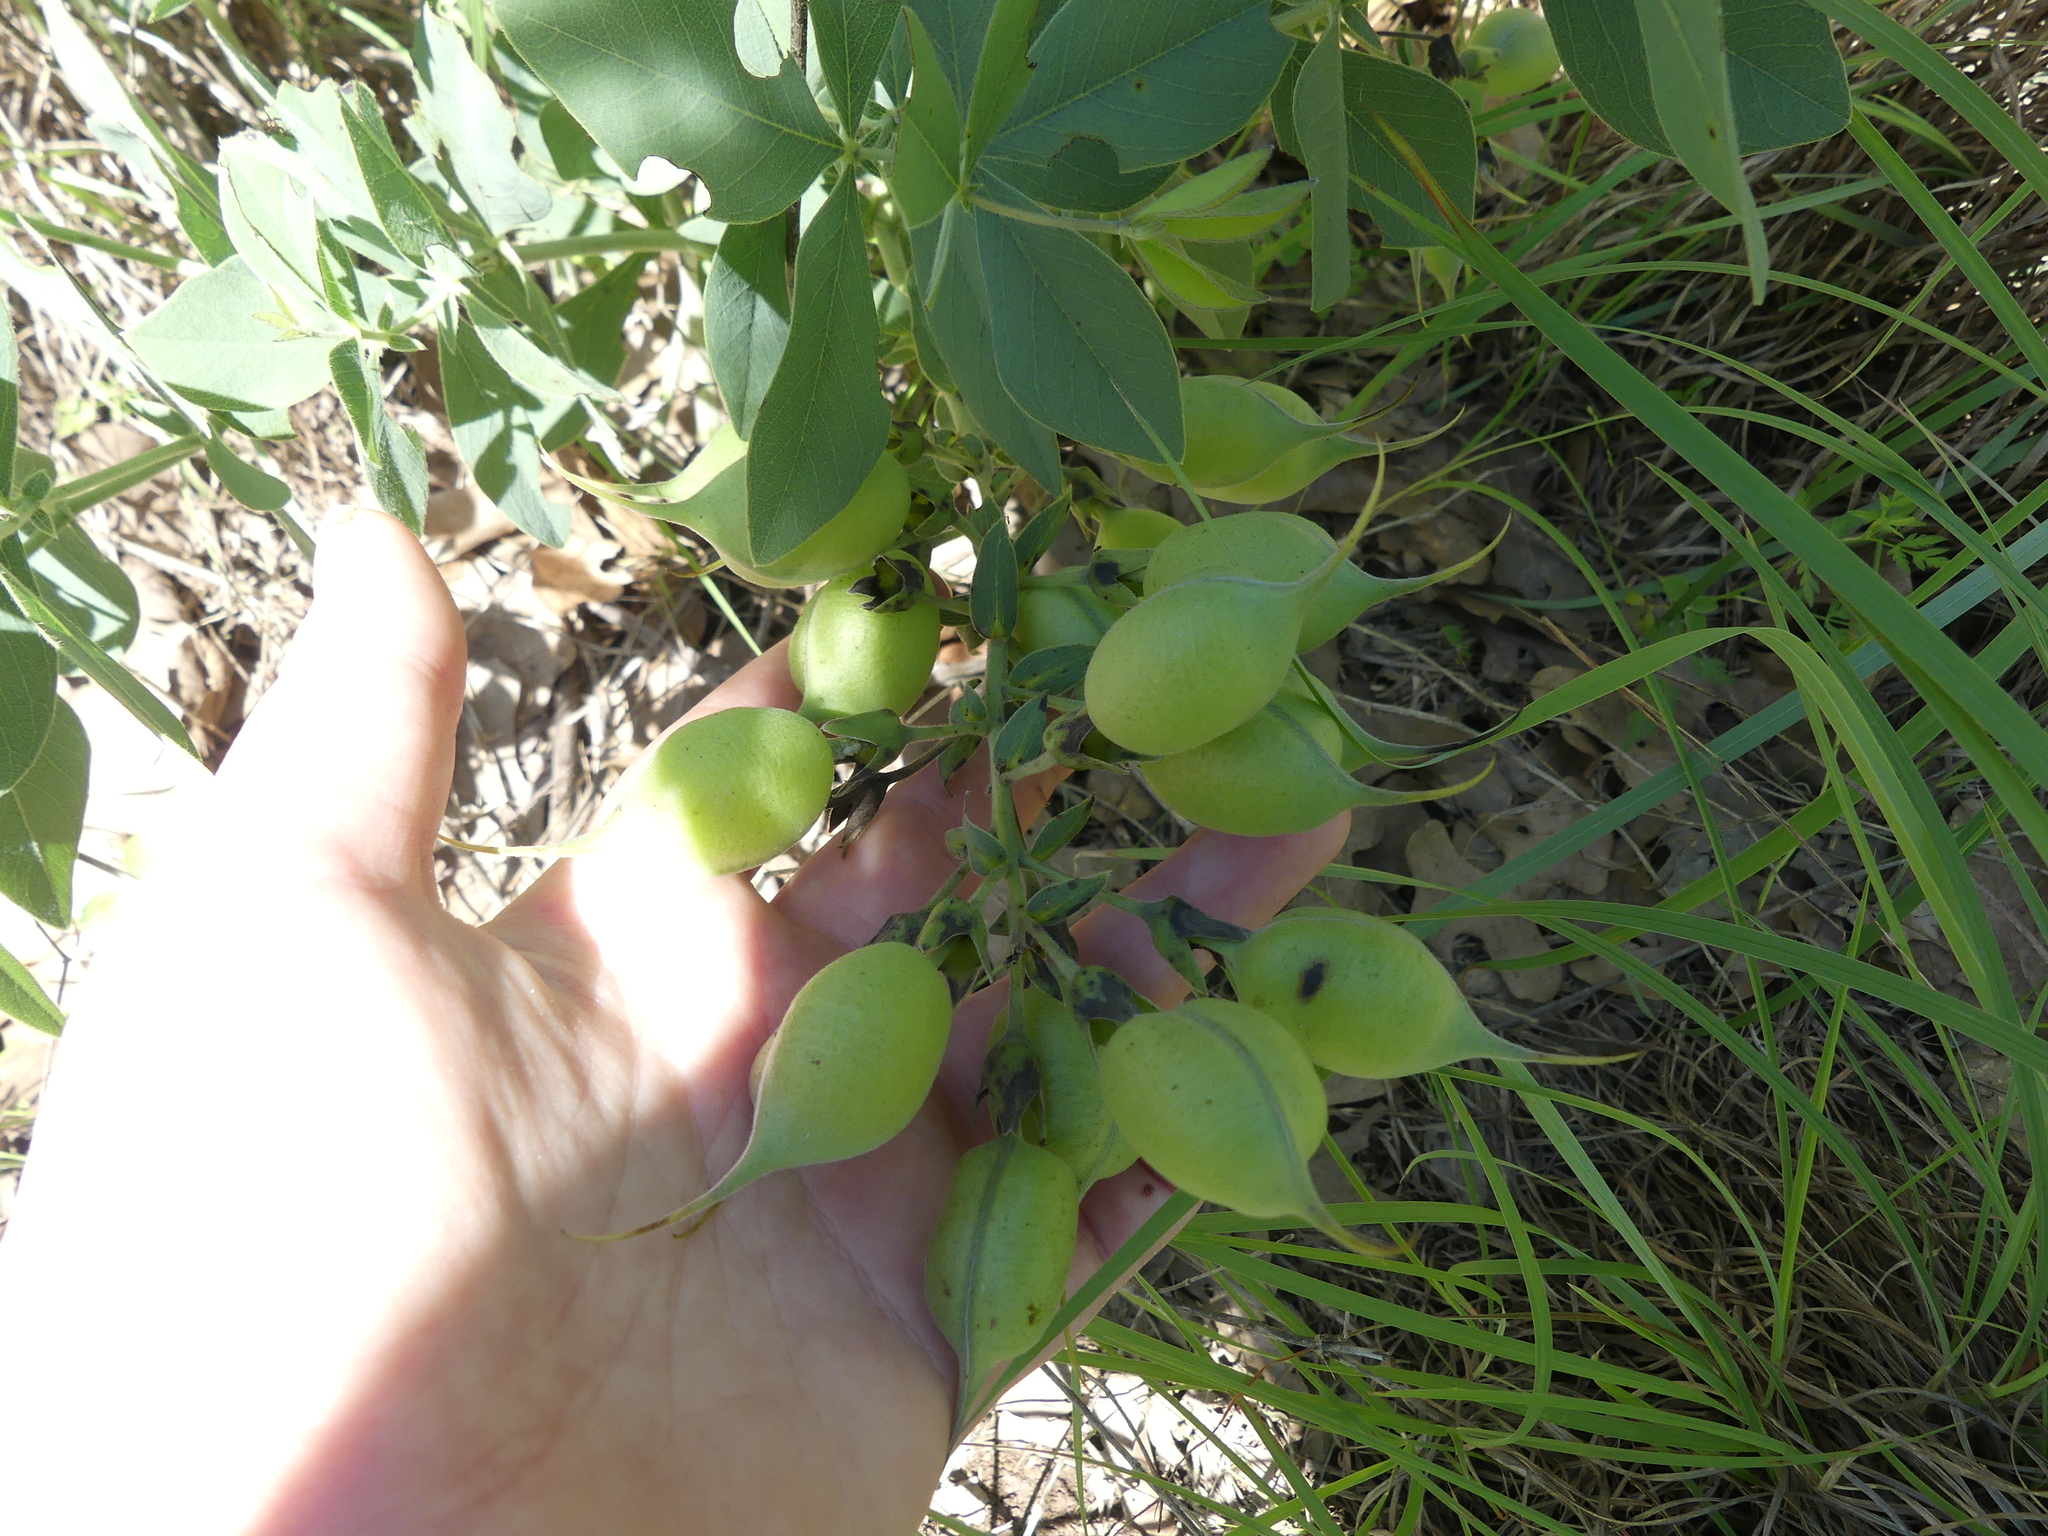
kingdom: Plantae
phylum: Tracheophyta
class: Magnoliopsida
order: Fabales
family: Fabaceae
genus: Baptisia
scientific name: Baptisia bracteata
